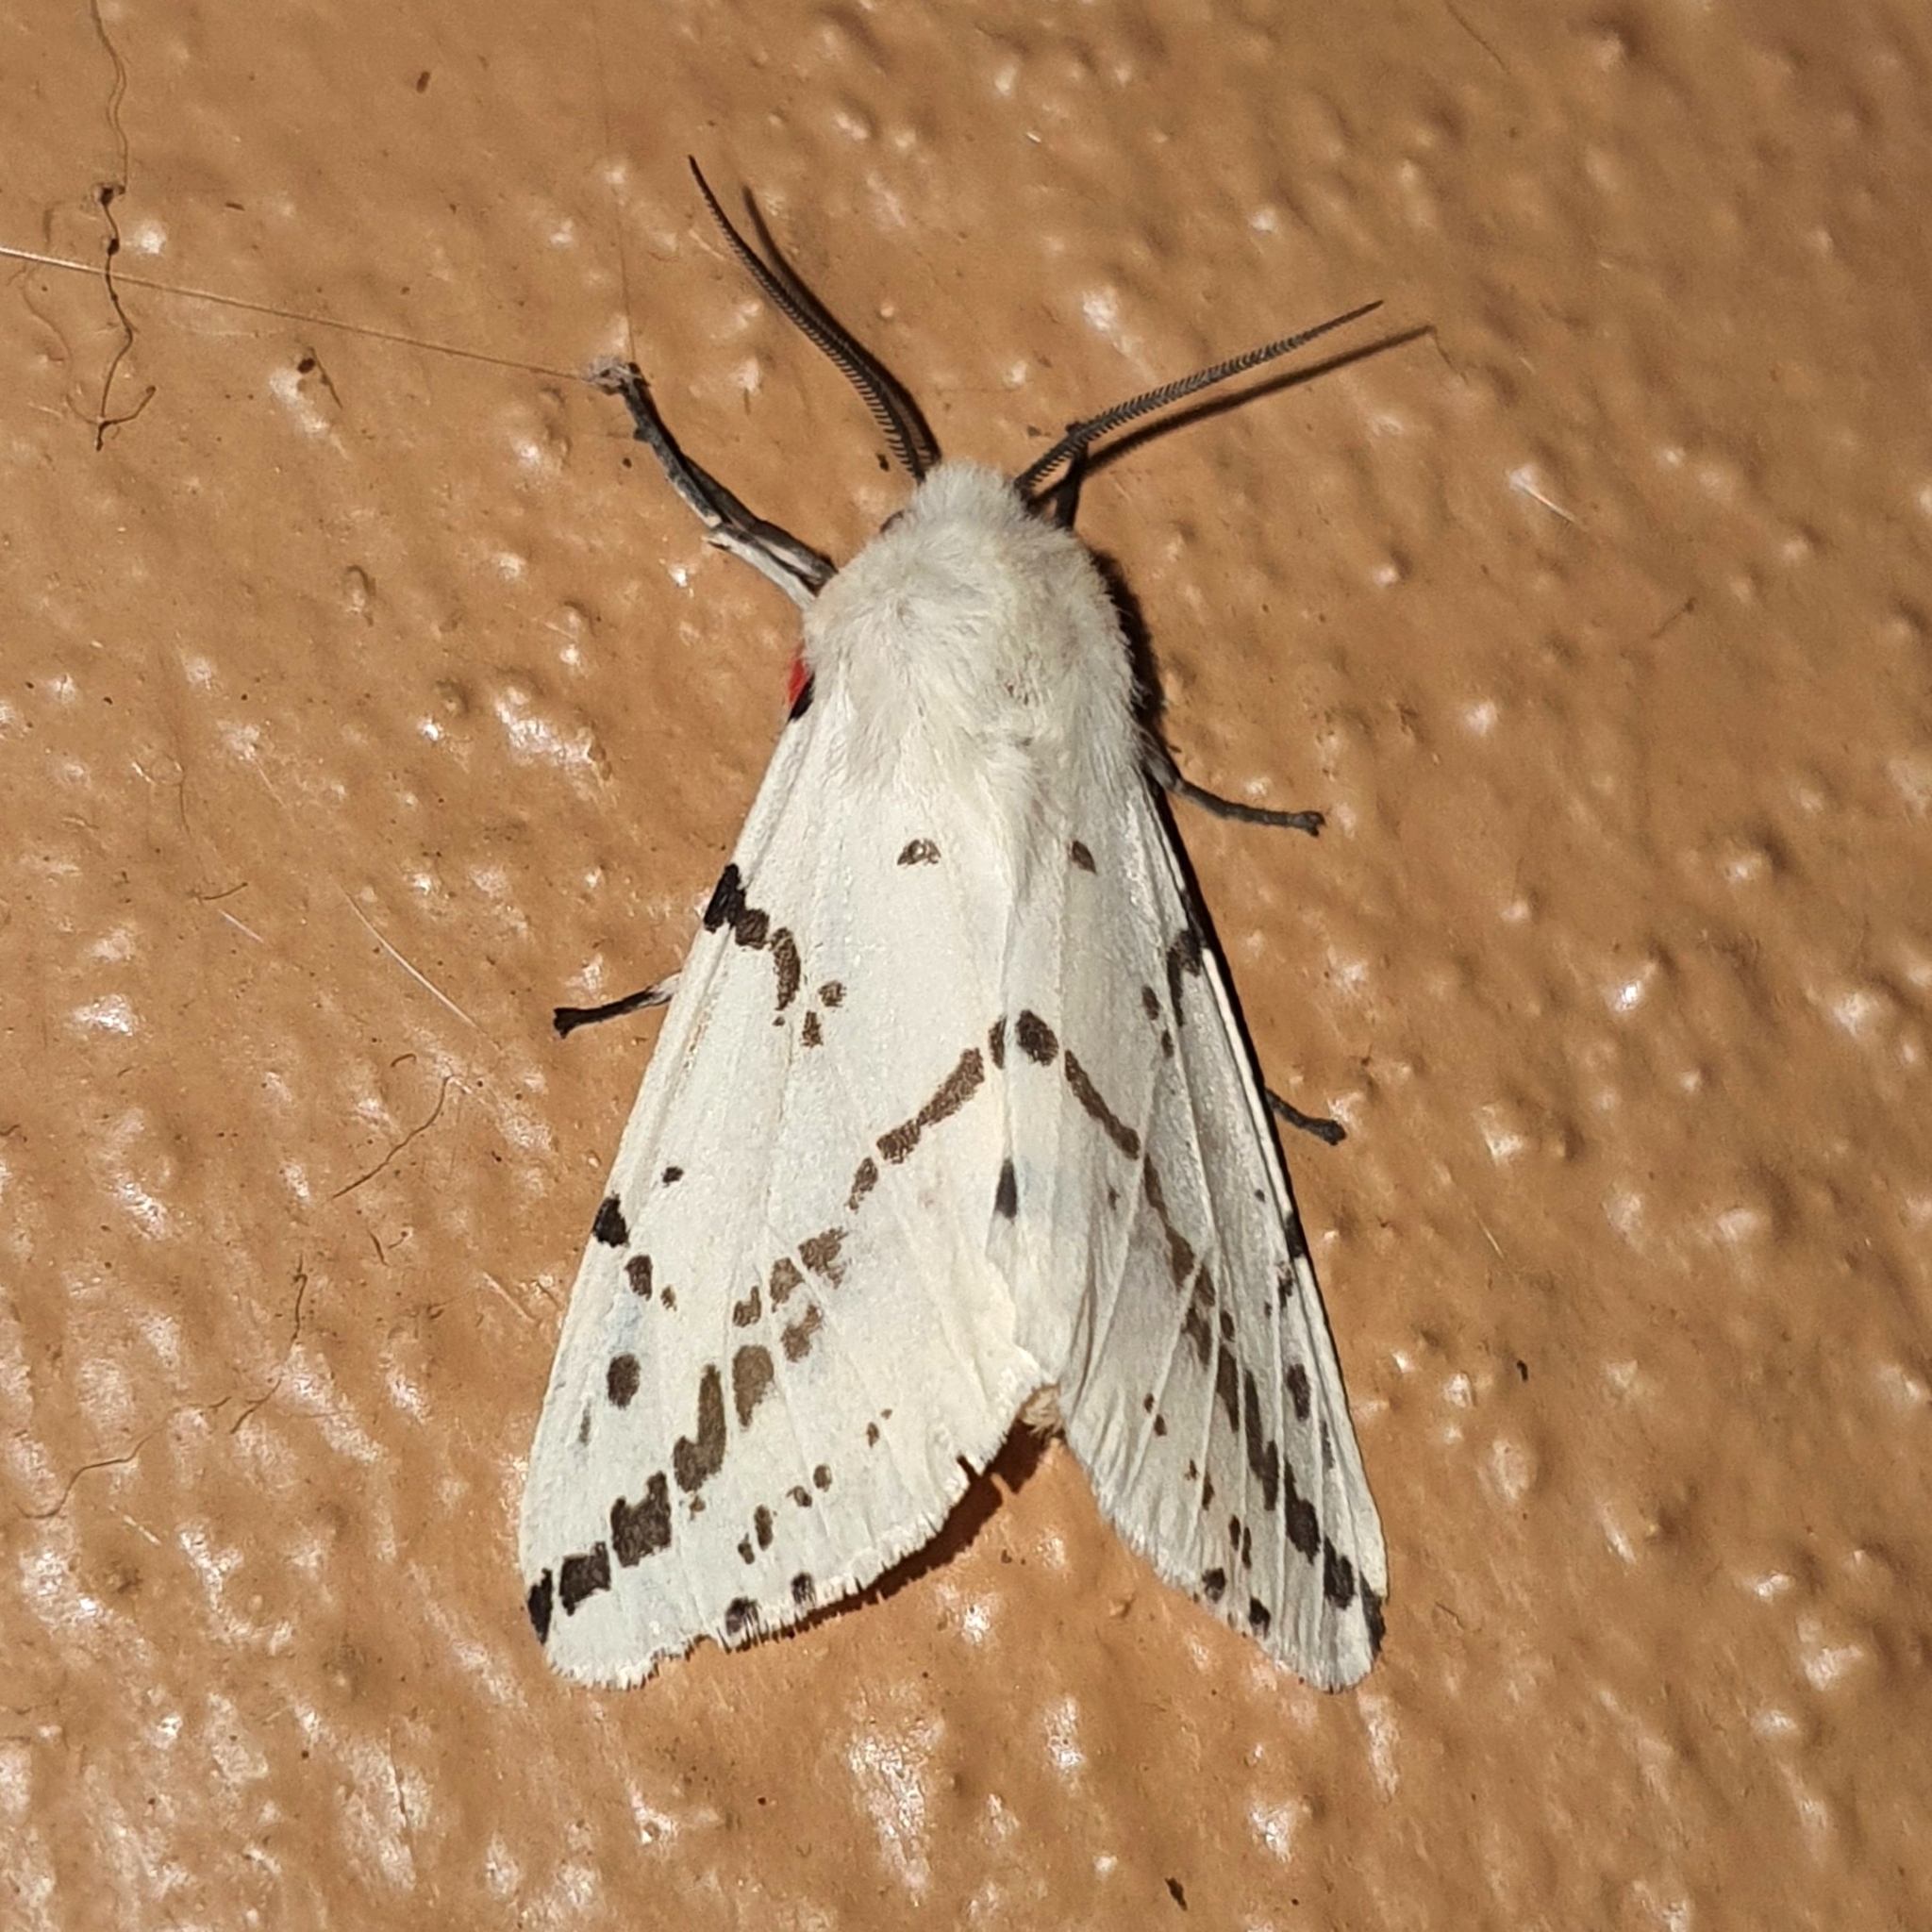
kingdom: Animalia
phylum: Arthropoda
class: Insecta
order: Lepidoptera
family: Erebidae
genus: Ardices
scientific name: Ardices canescens
